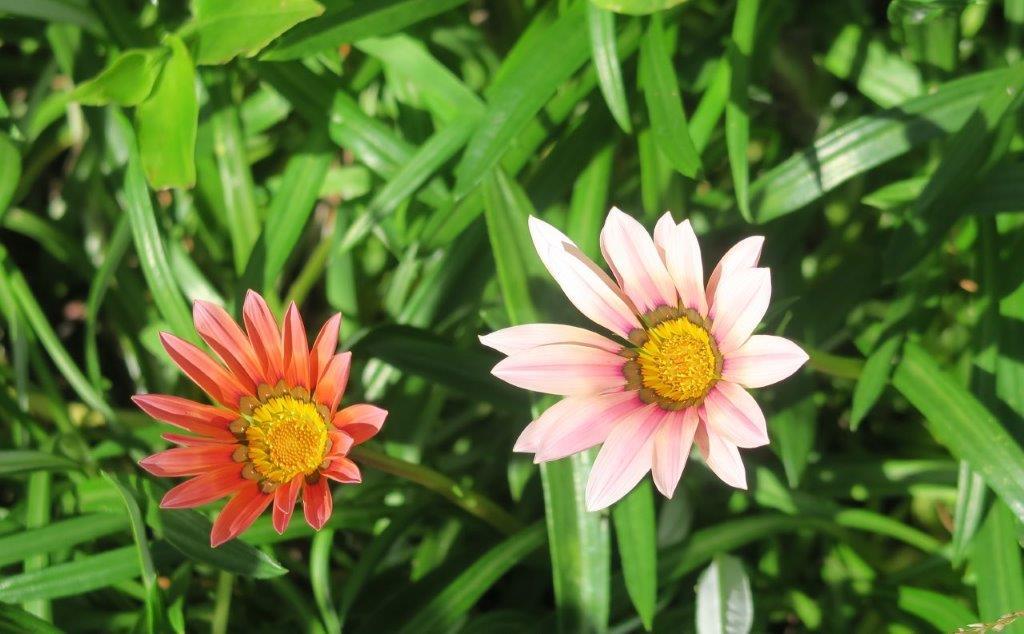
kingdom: Plantae
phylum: Tracheophyta
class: Magnoliopsida
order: Asterales
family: Asteraceae
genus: Gazania
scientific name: Gazania splendens
